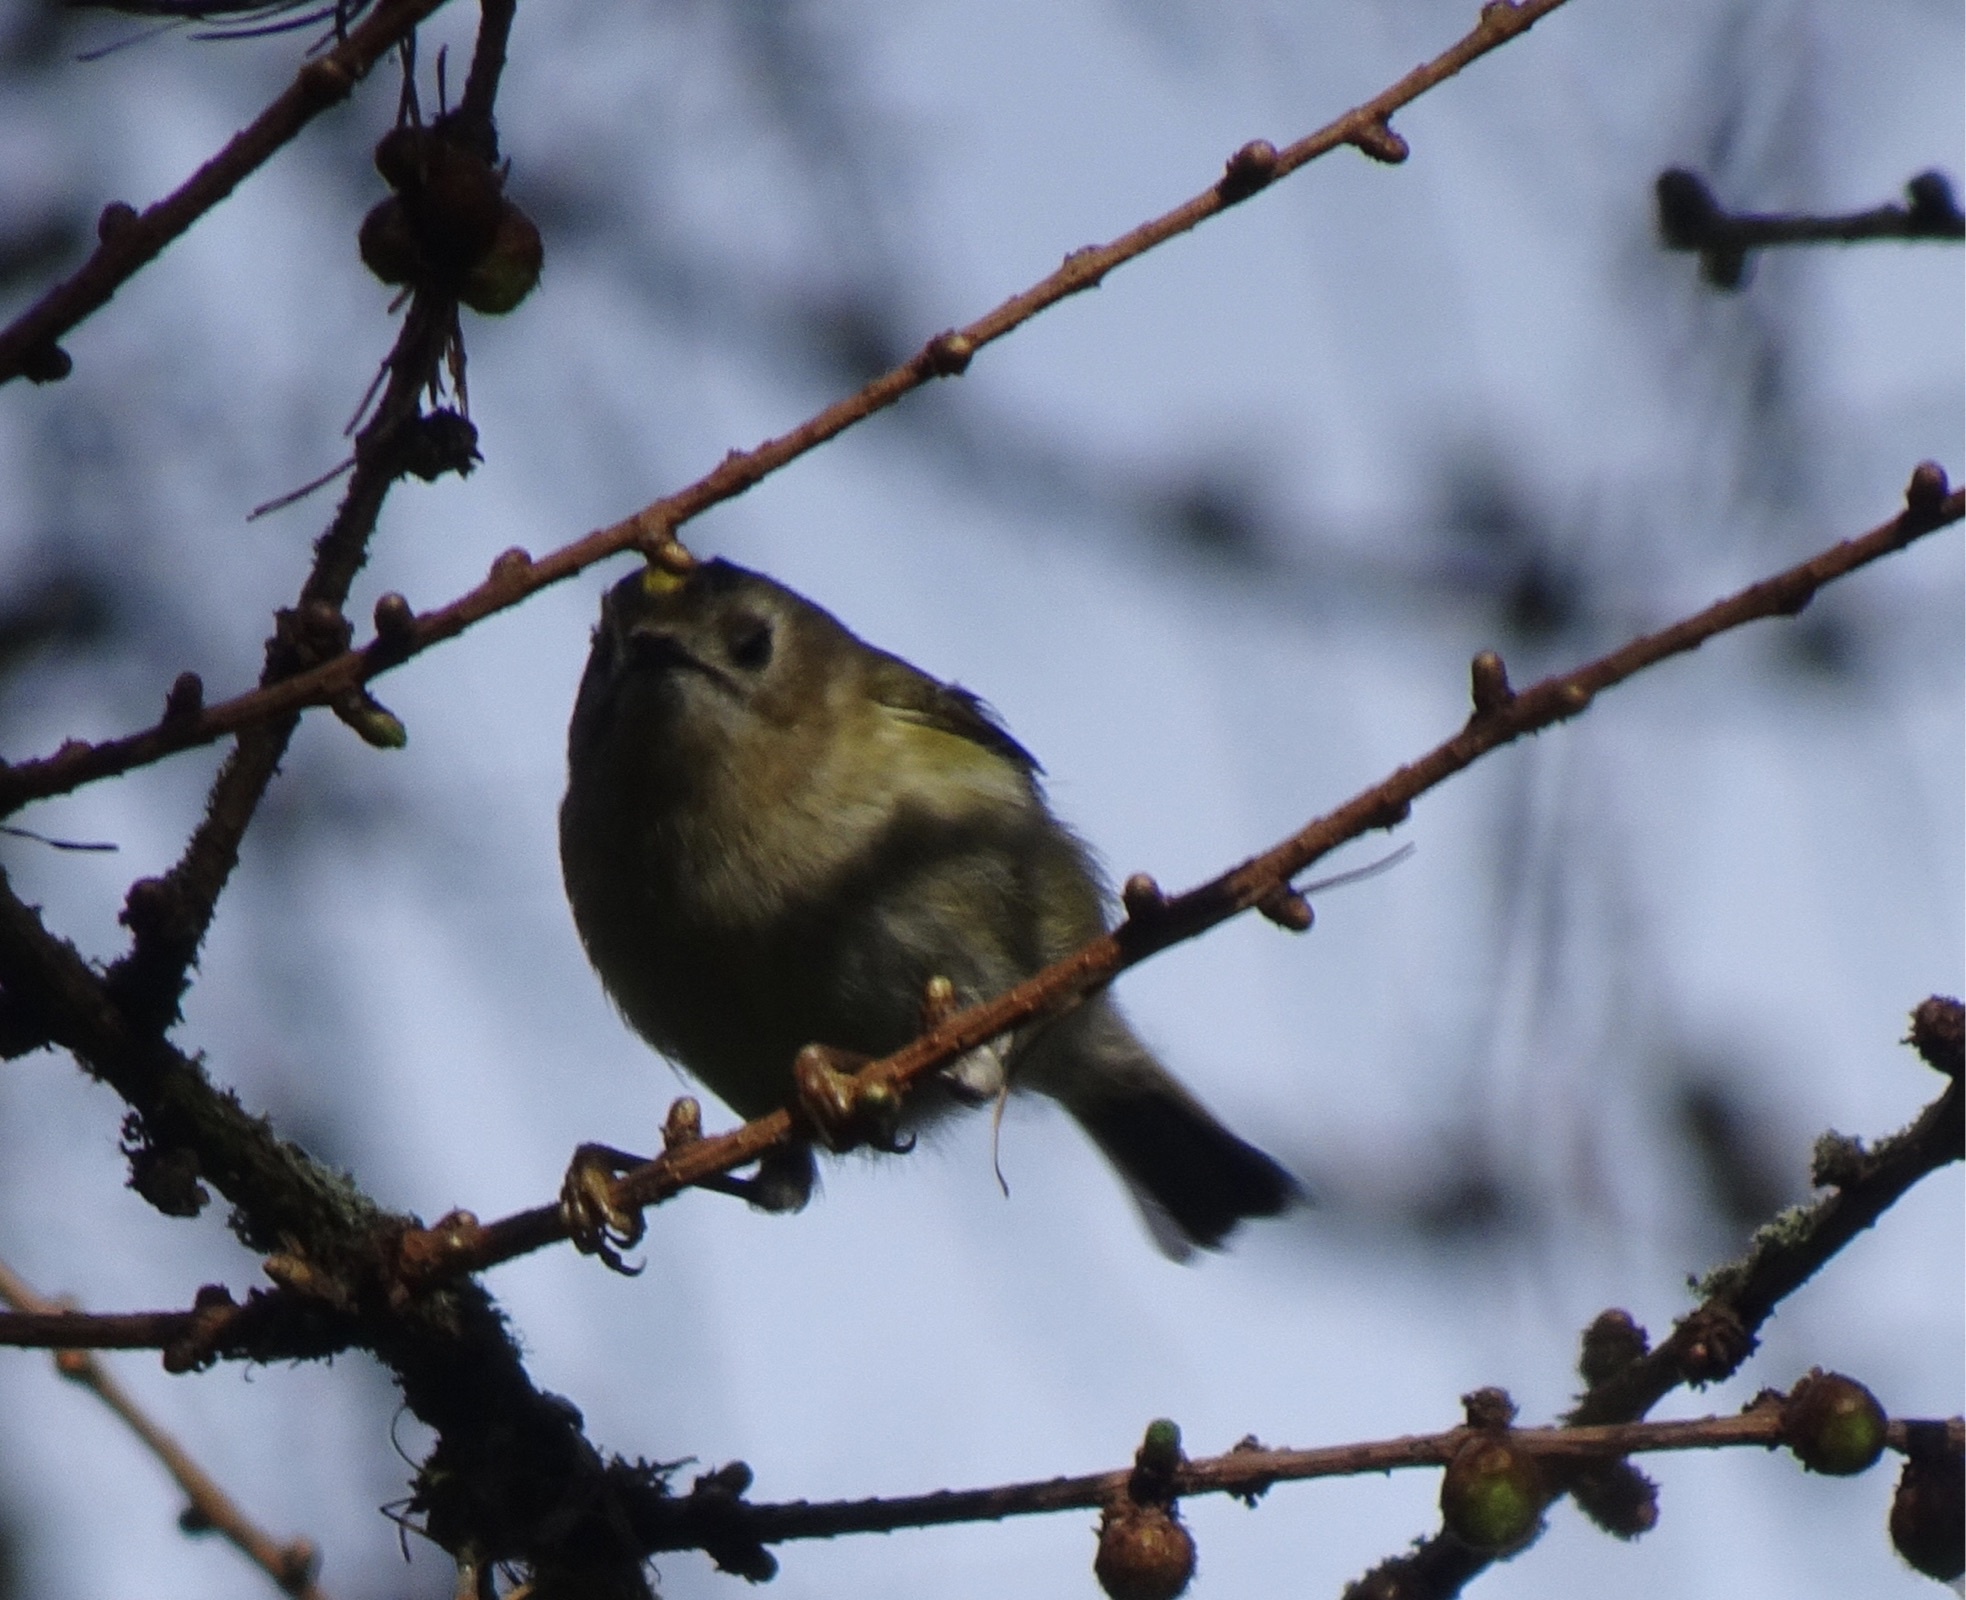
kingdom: Animalia
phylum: Chordata
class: Aves
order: Passeriformes
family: Regulidae
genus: Regulus
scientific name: Regulus regulus
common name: Goldcrest
